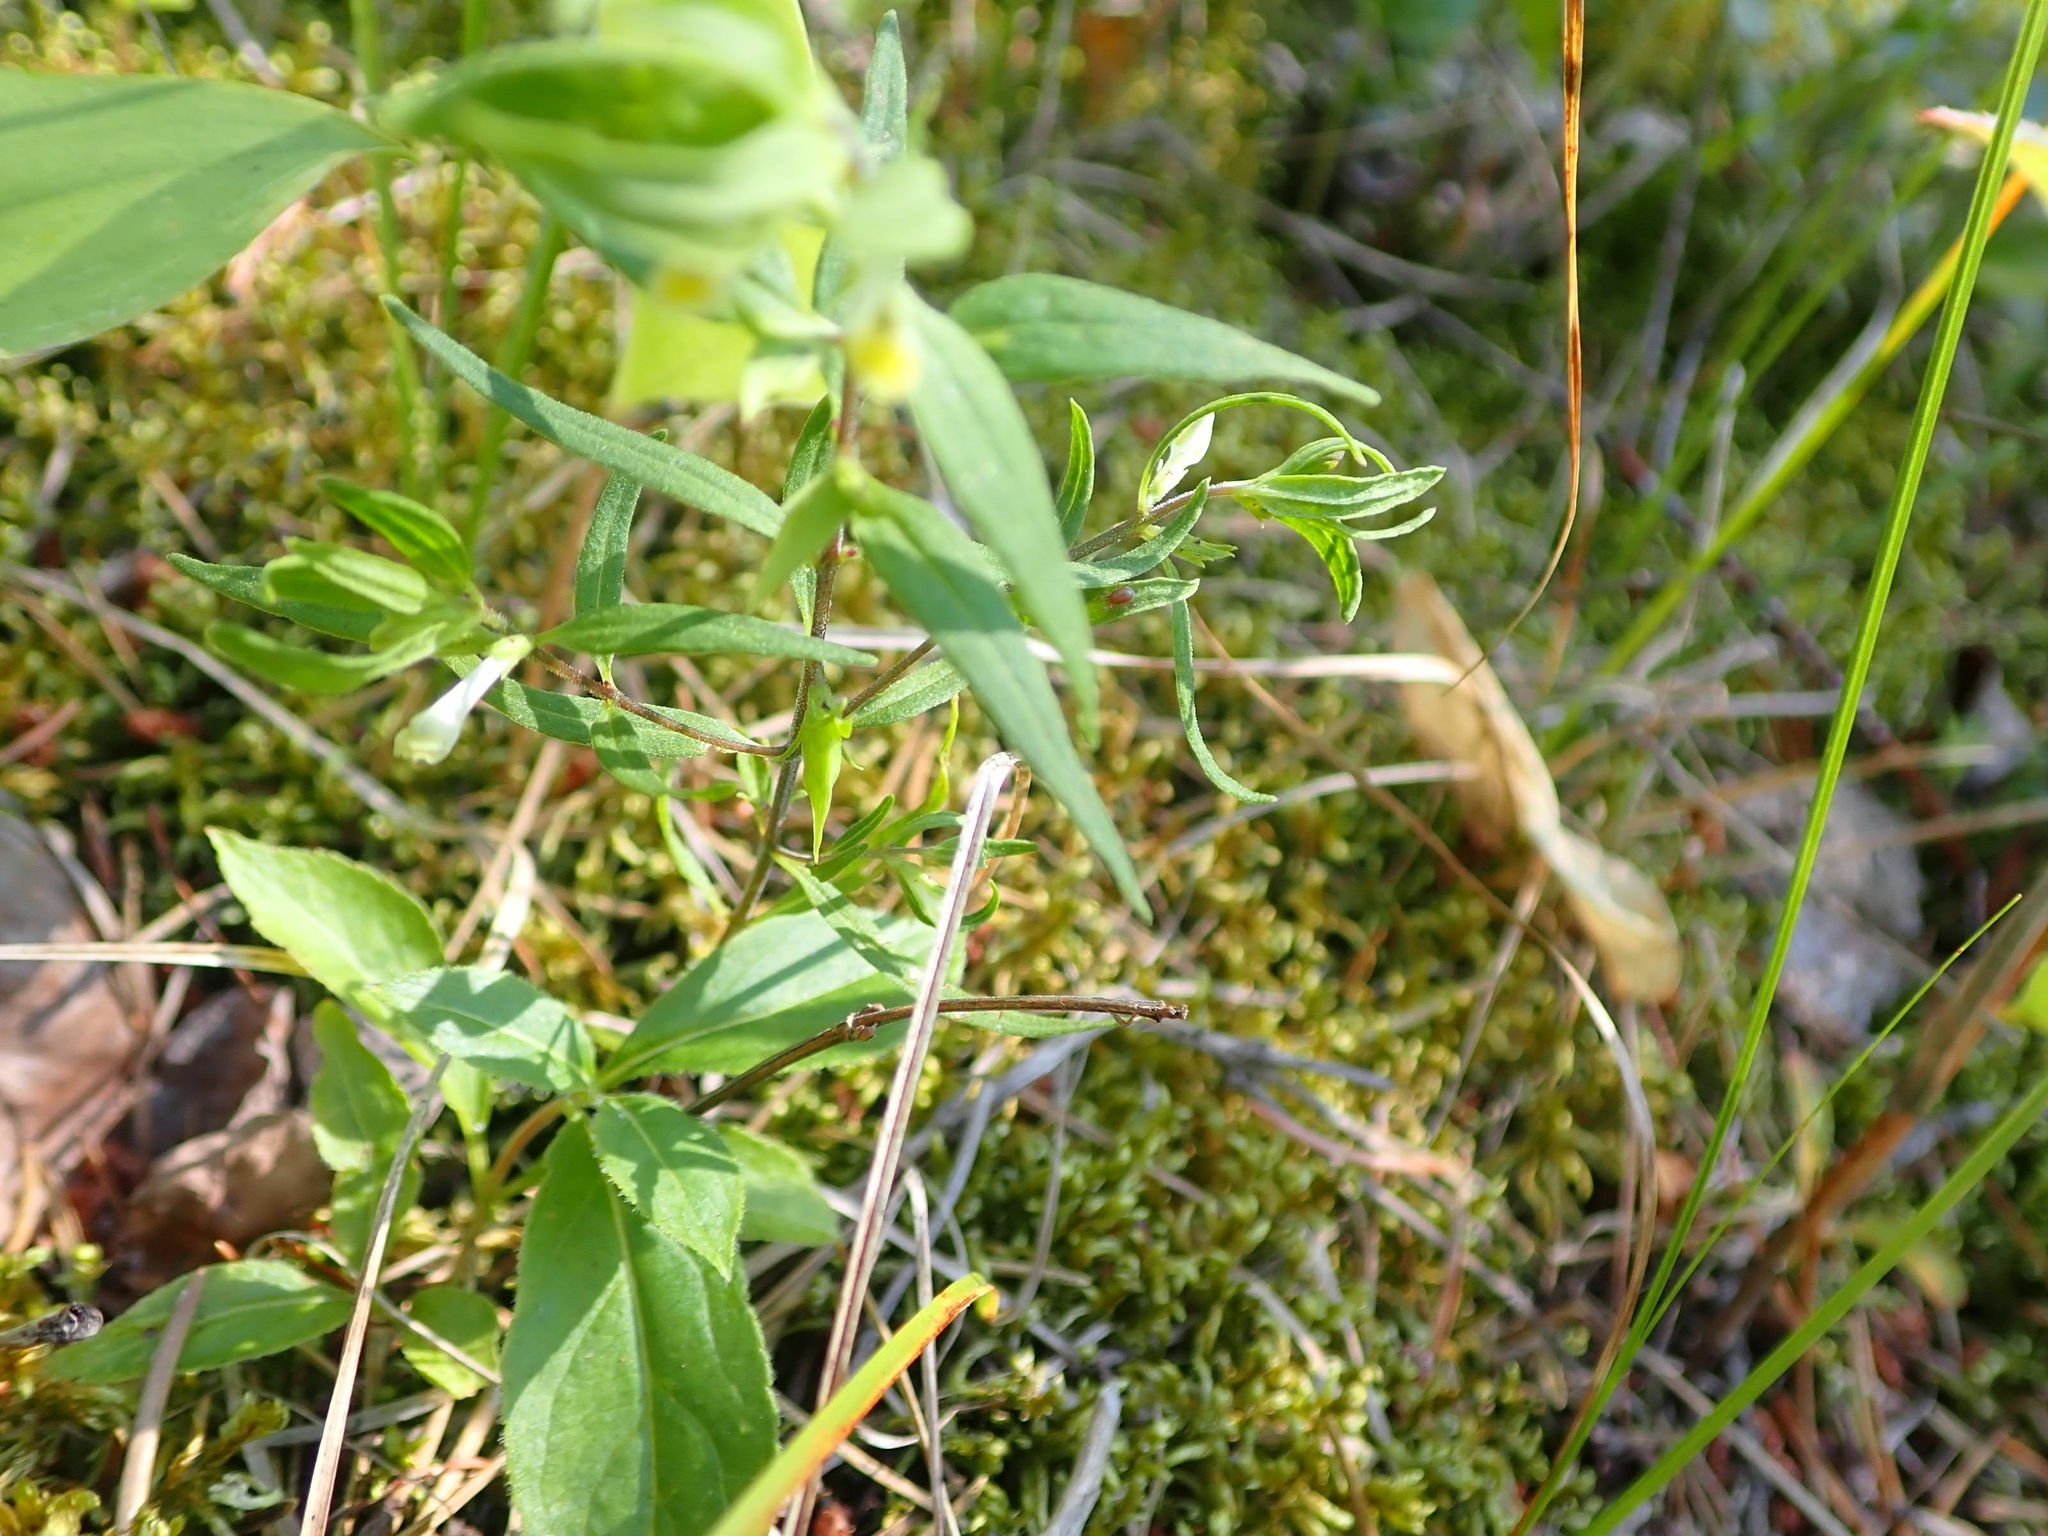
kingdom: Plantae
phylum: Tracheophyta
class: Magnoliopsida
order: Lamiales
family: Orobanchaceae
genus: Melampyrum
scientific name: Melampyrum lineare
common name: American cow-wheat
